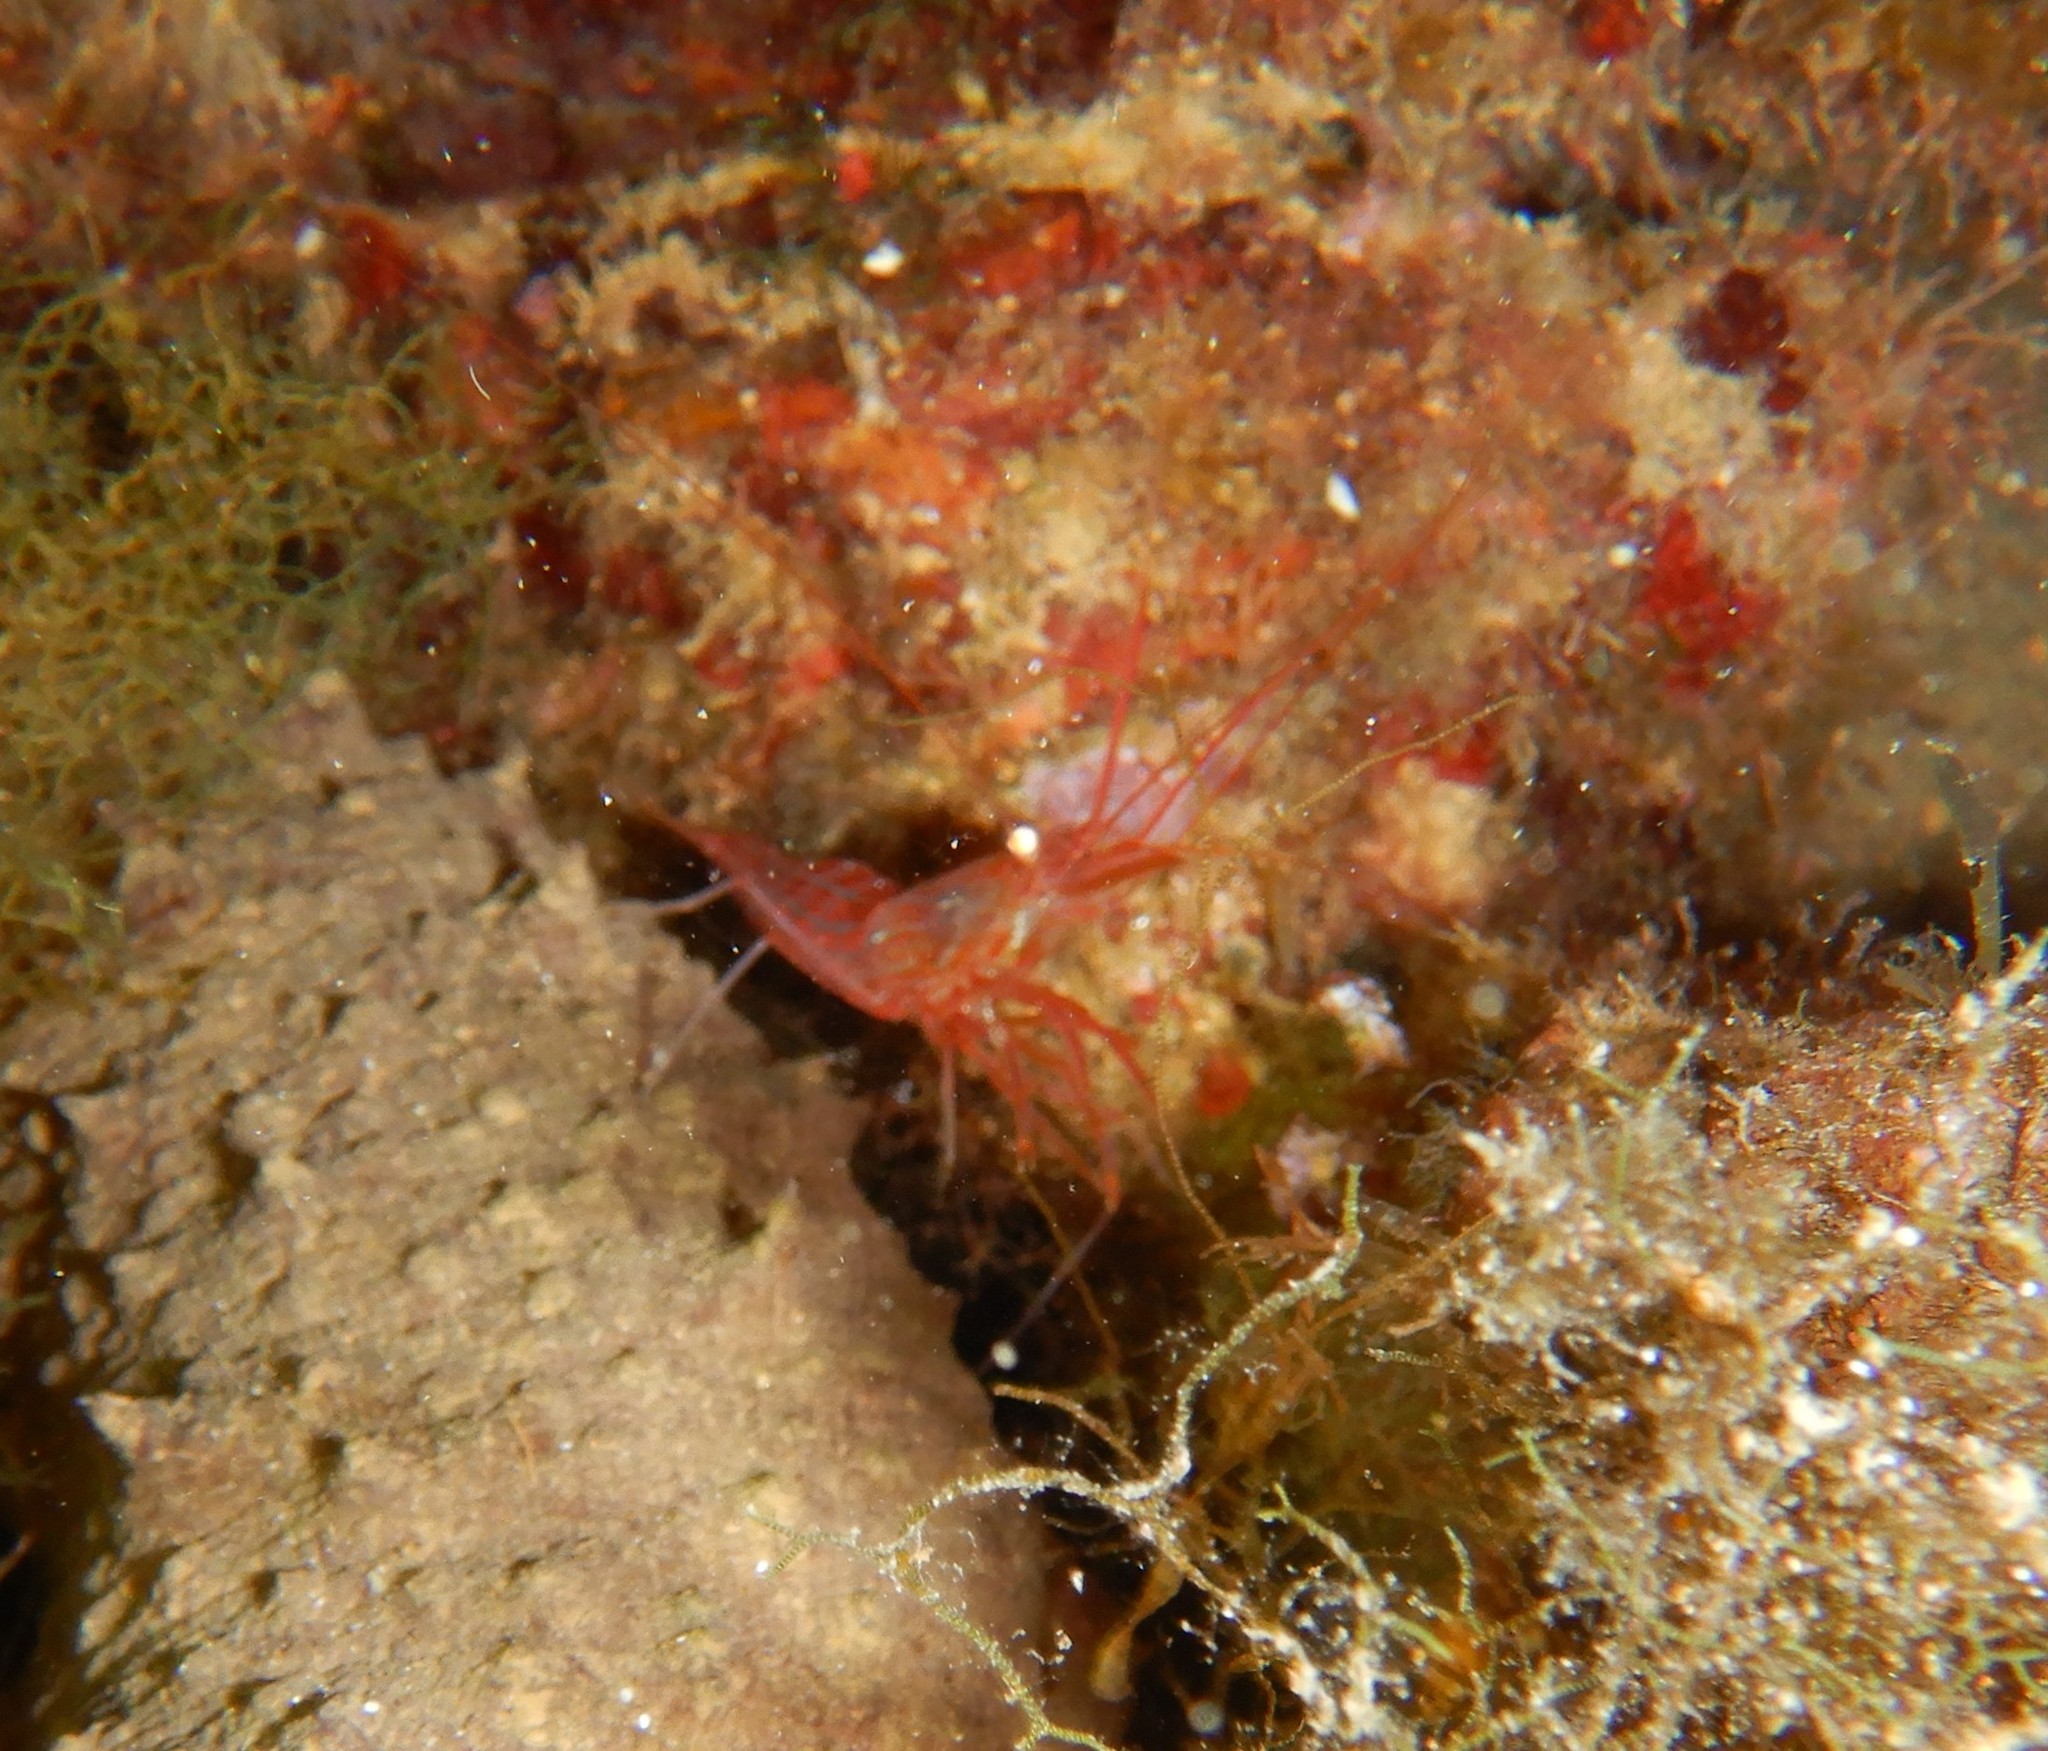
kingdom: Animalia
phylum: Arthropoda
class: Malacostraca
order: Decapoda
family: Lysmatidae
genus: Lysmata
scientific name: Lysmata seticaudata
